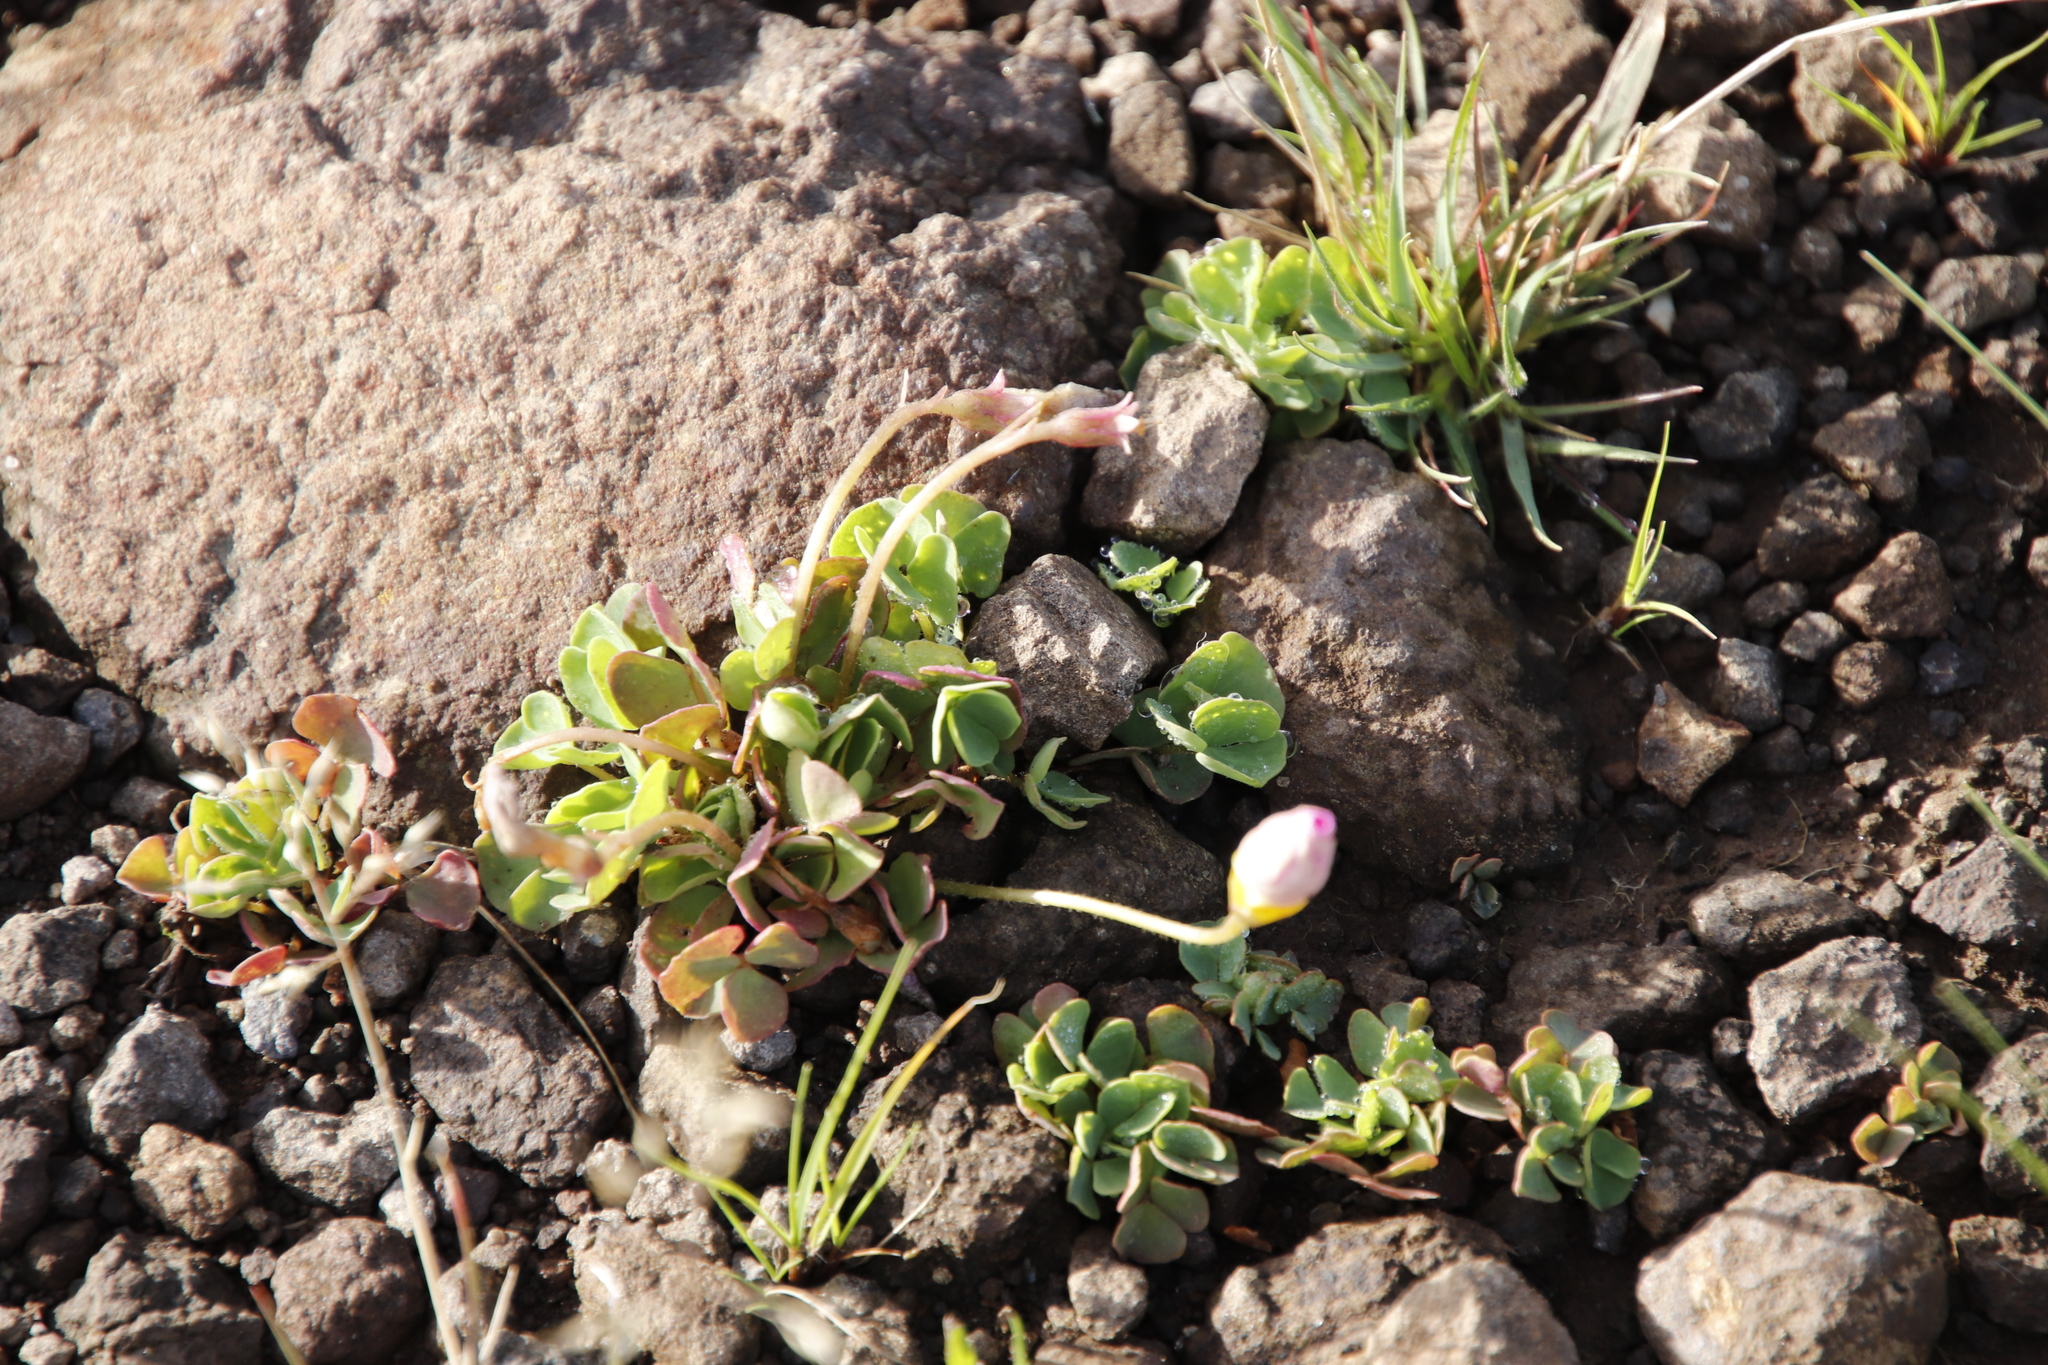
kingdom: Plantae
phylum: Tracheophyta
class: Magnoliopsida
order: Oxalidales
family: Oxalidaceae
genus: Oxalis
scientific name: Oxalis obliquifolia
